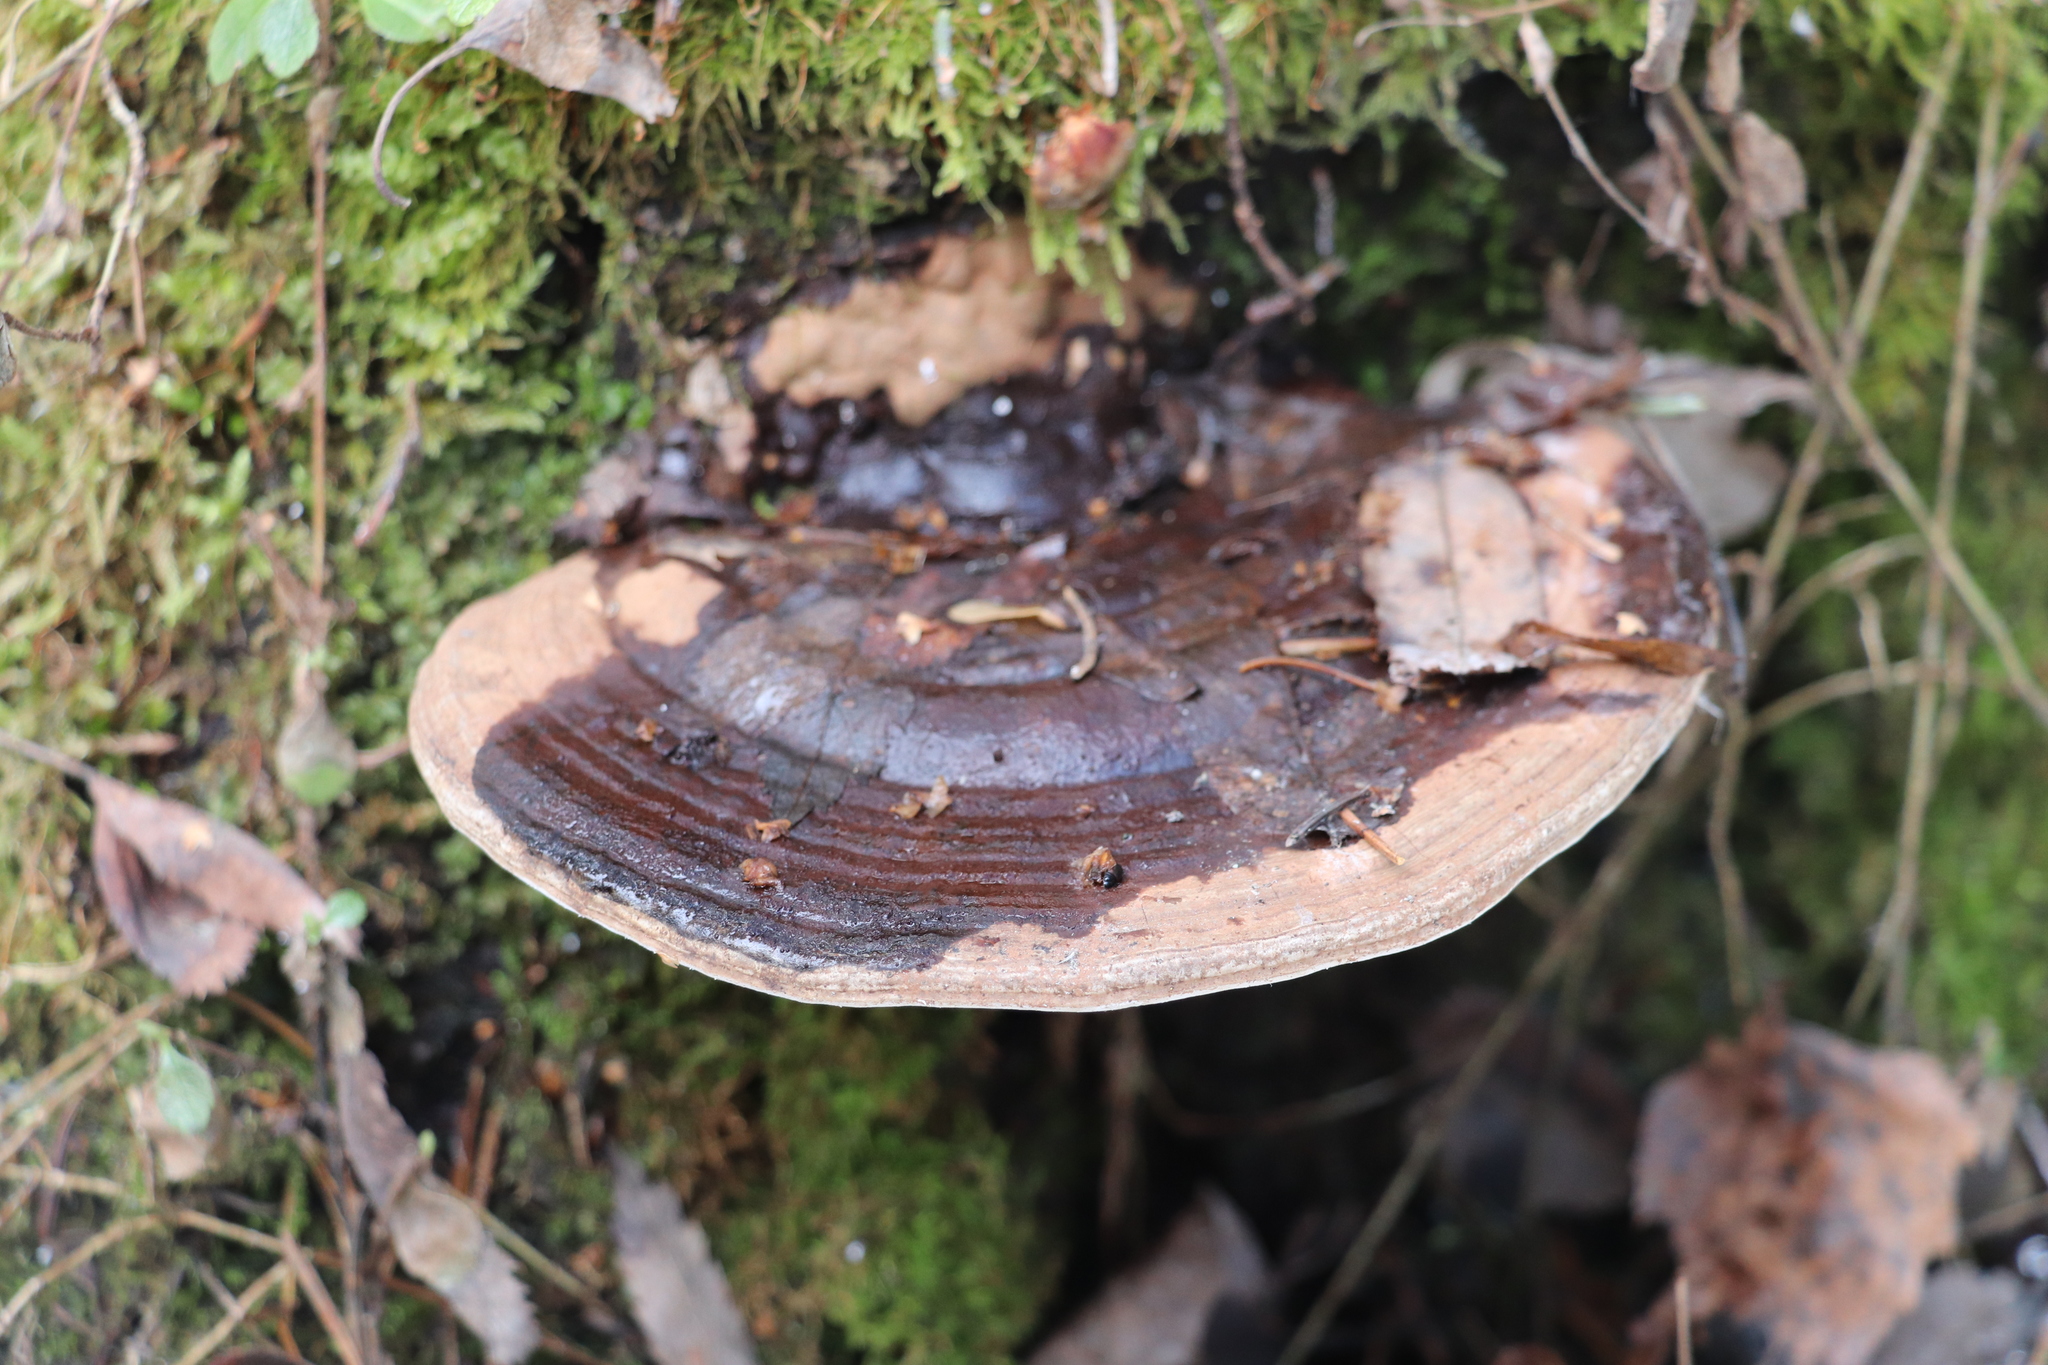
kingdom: Fungi
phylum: Basidiomycota
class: Agaricomycetes
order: Polyporales
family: Polyporaceae
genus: Ganoderma
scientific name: Ganoderma applanatum
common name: Artist's bracket
